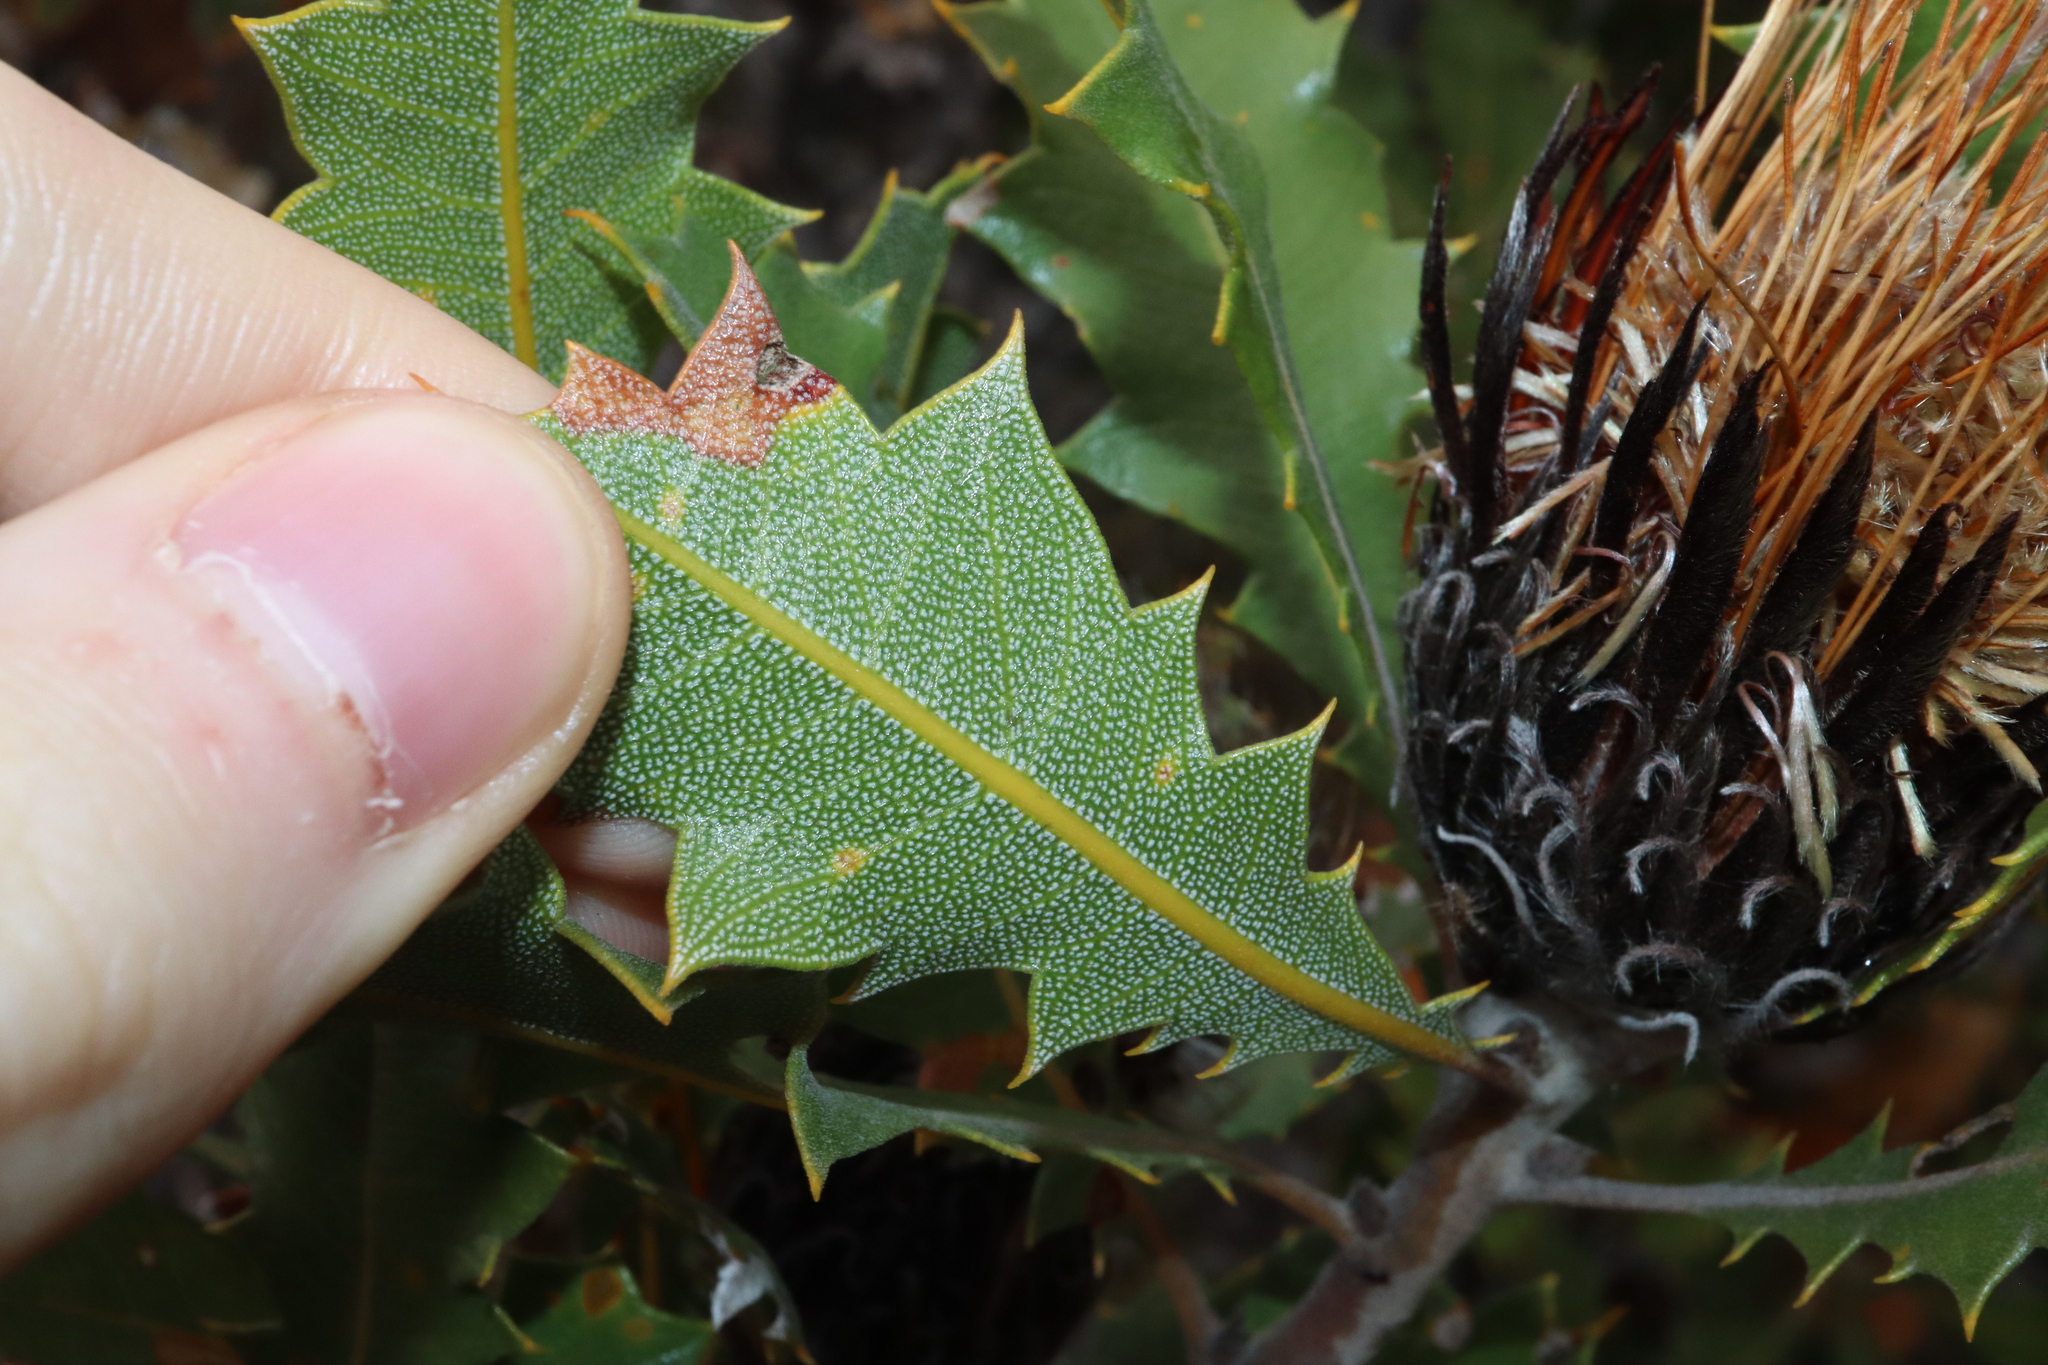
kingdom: Plantae
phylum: Tracheophyta
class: Magnoliopsida
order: Proteales
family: Proteaceae
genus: Banksia
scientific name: Banksia heliantha
